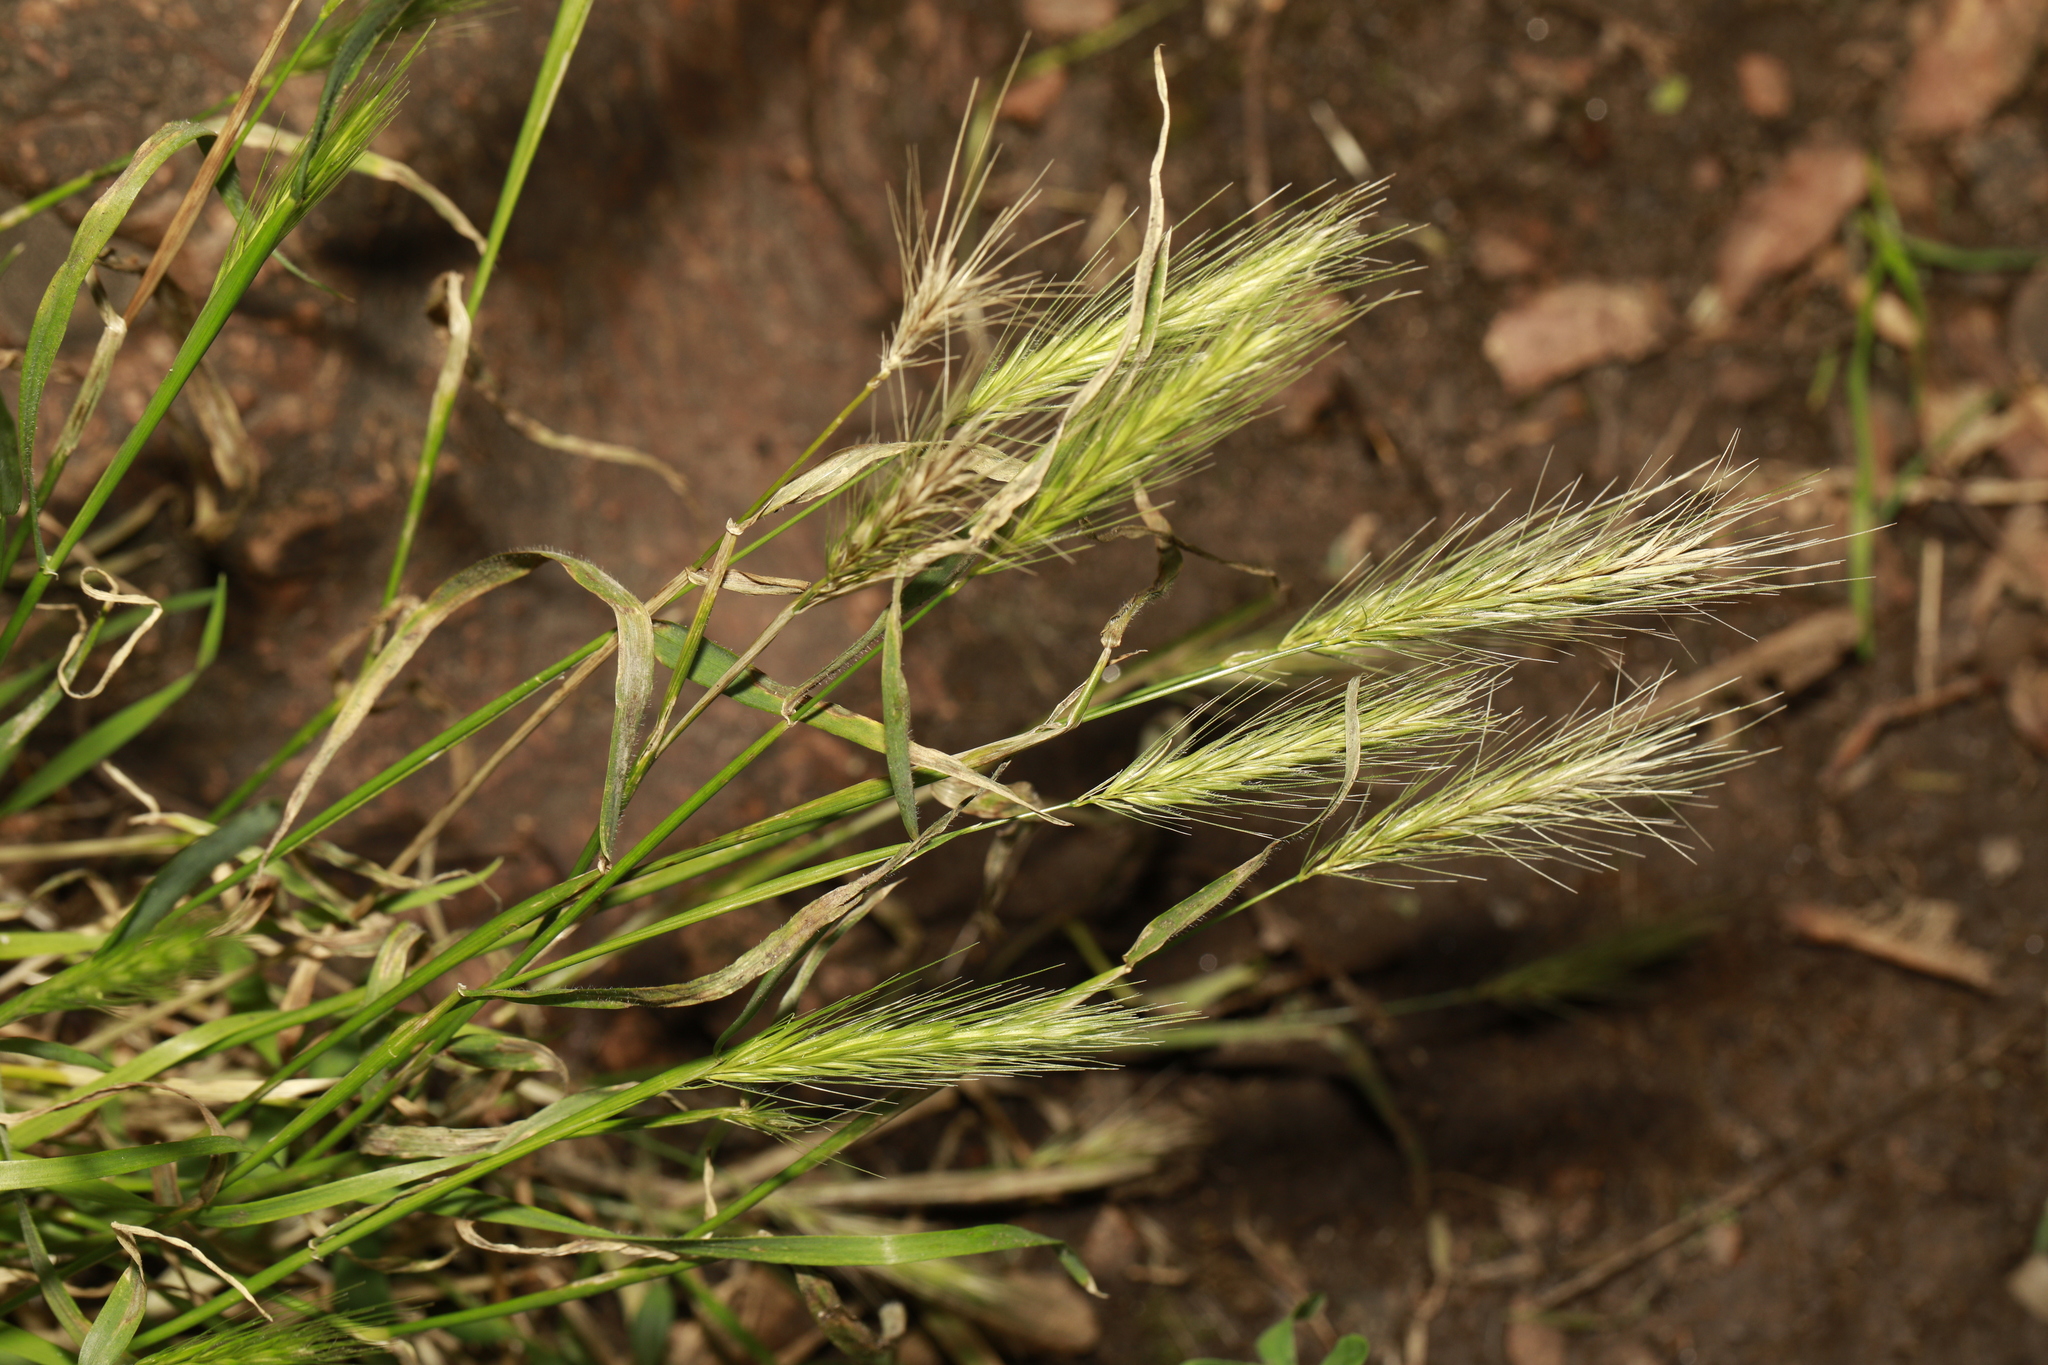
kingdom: Plantae
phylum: Tracheophyta
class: Liliopsida
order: Poales
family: Poaceae
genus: Hordeum
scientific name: Hordeum murinum
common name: Wall barley
